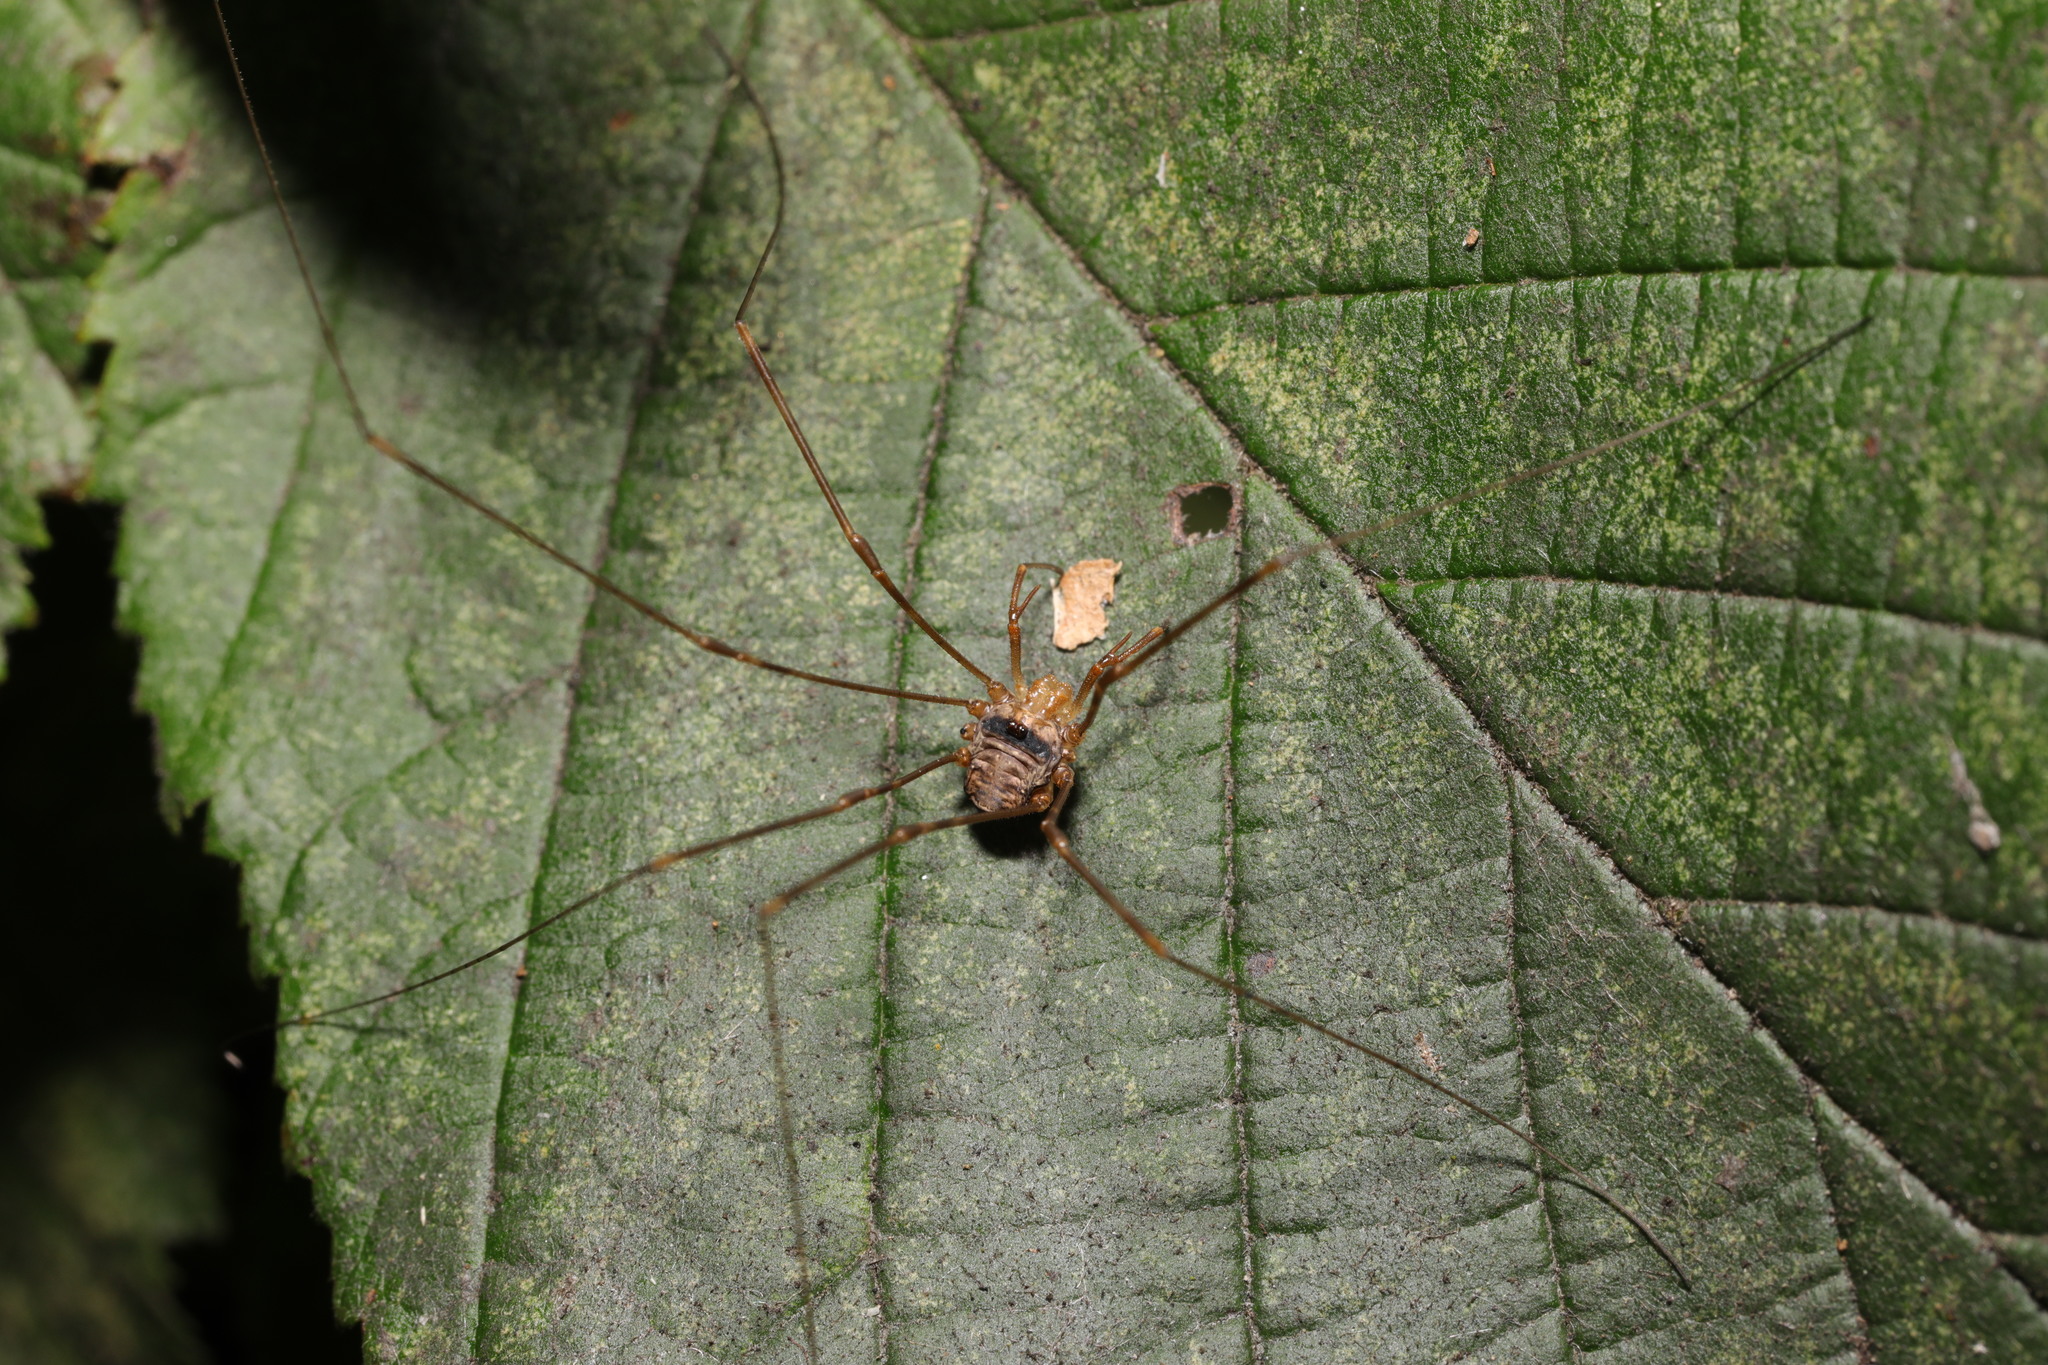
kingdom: Animalia
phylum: Arthropoda
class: Arachnida
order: Opiliones
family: Phalangiidae
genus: Dicranopalpus
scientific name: Dicranopalpus ramosus
